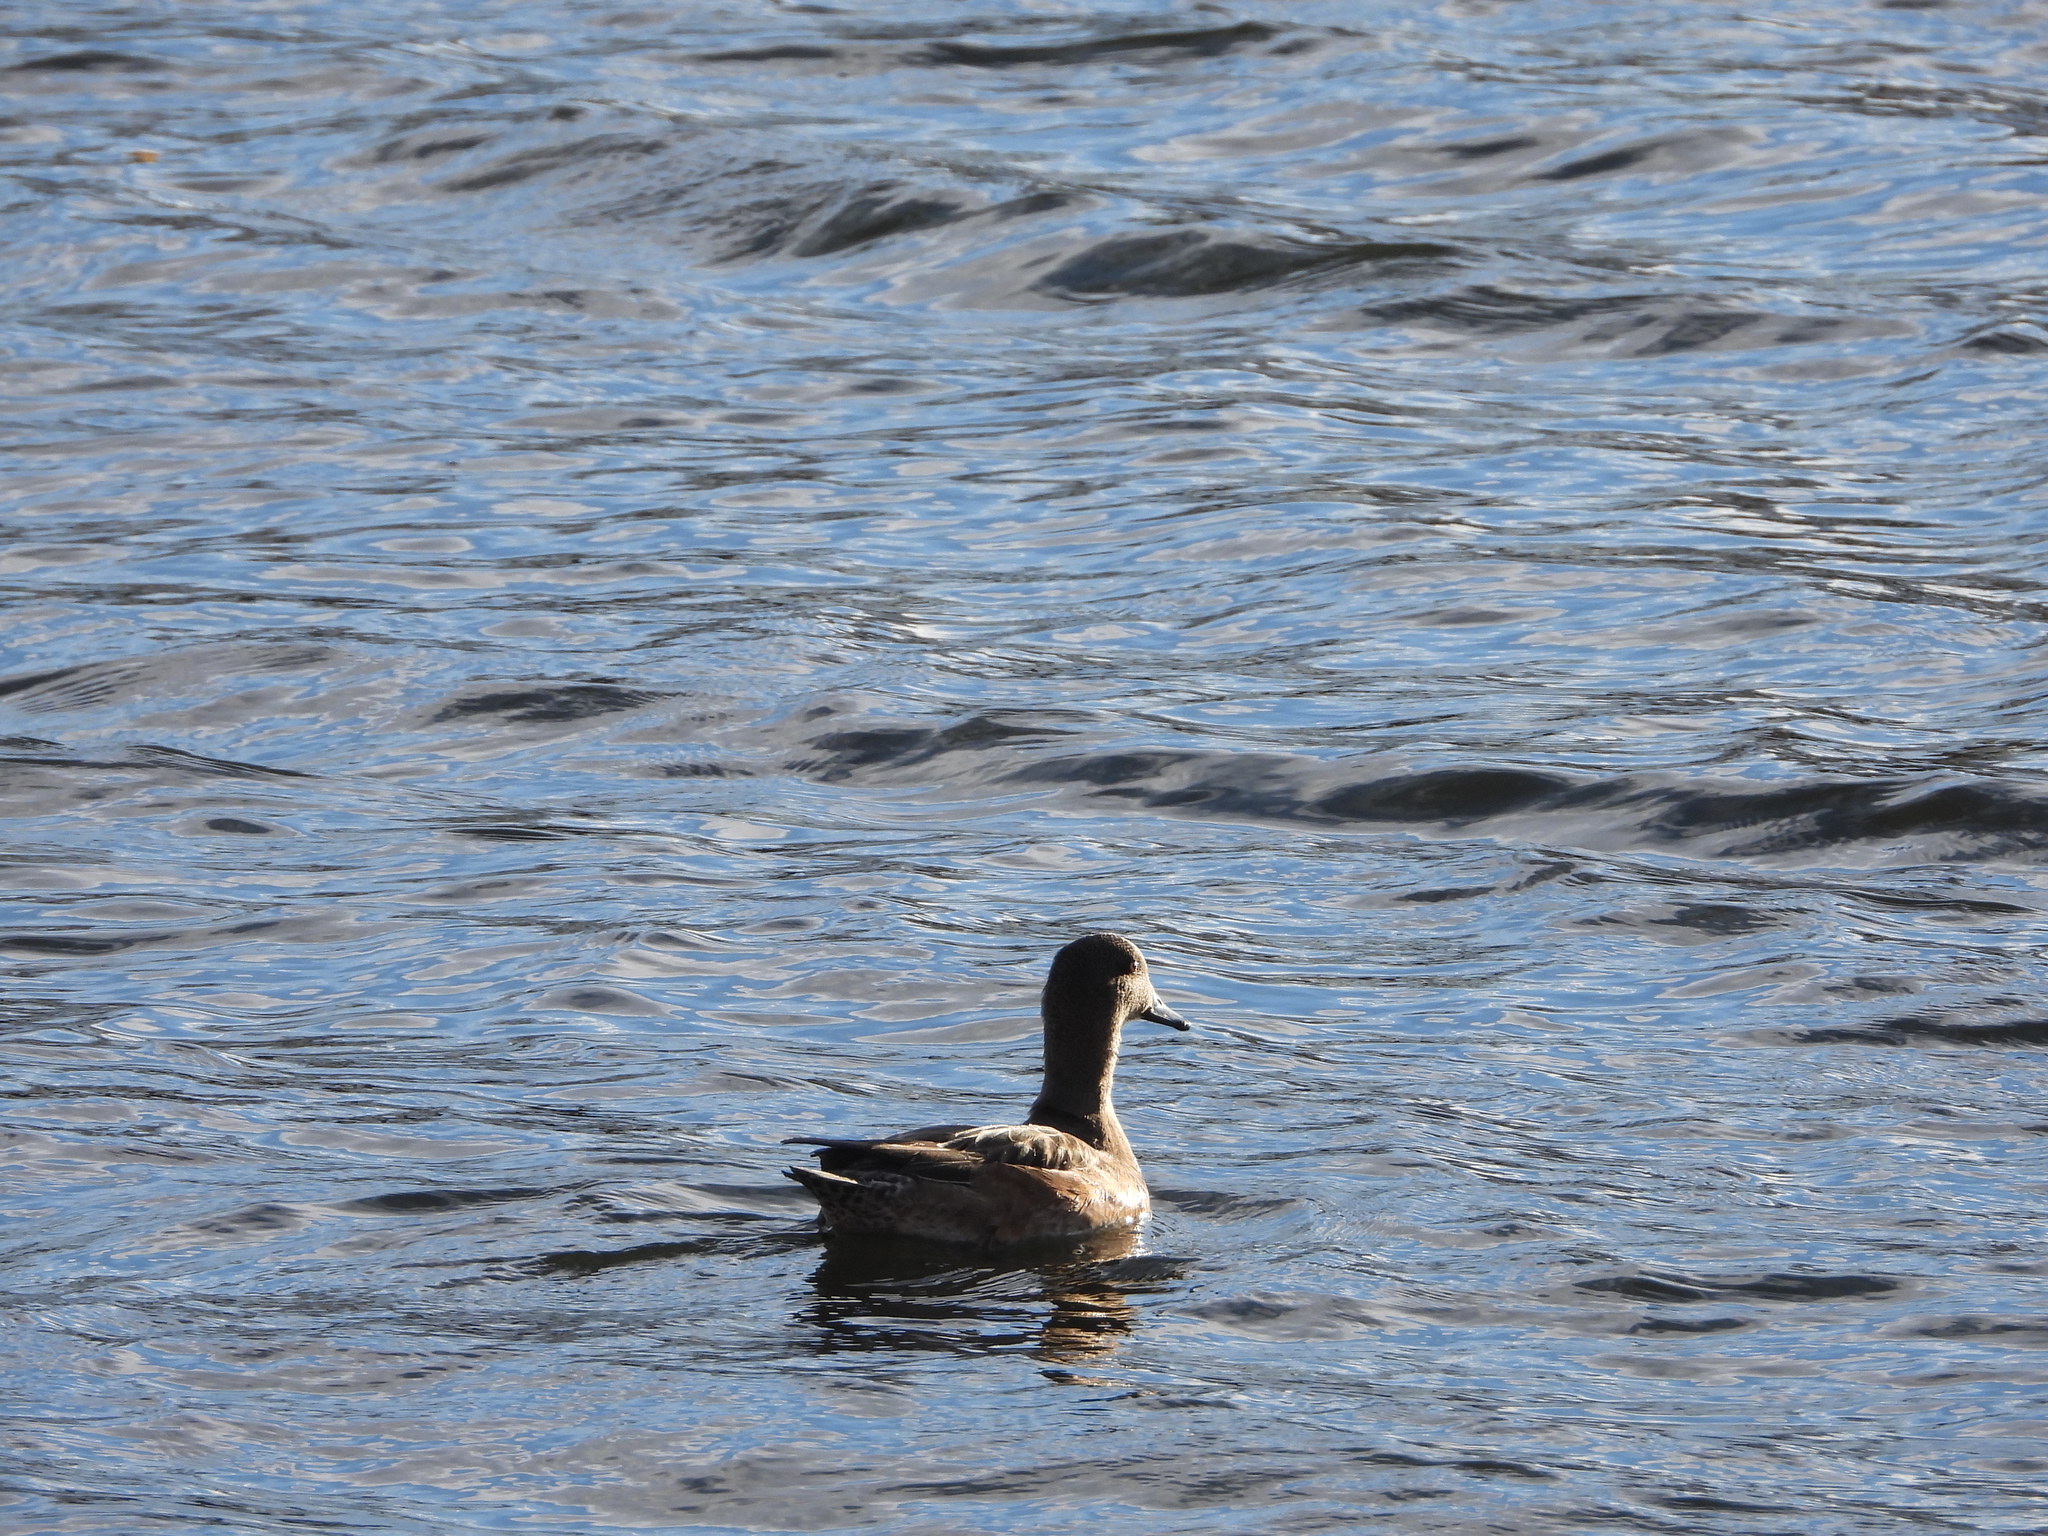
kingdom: Animalia
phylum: Chordata
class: Aves
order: Anseriformes
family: Anatidae
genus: Mareca
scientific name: Mareca americana
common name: American wigeon
